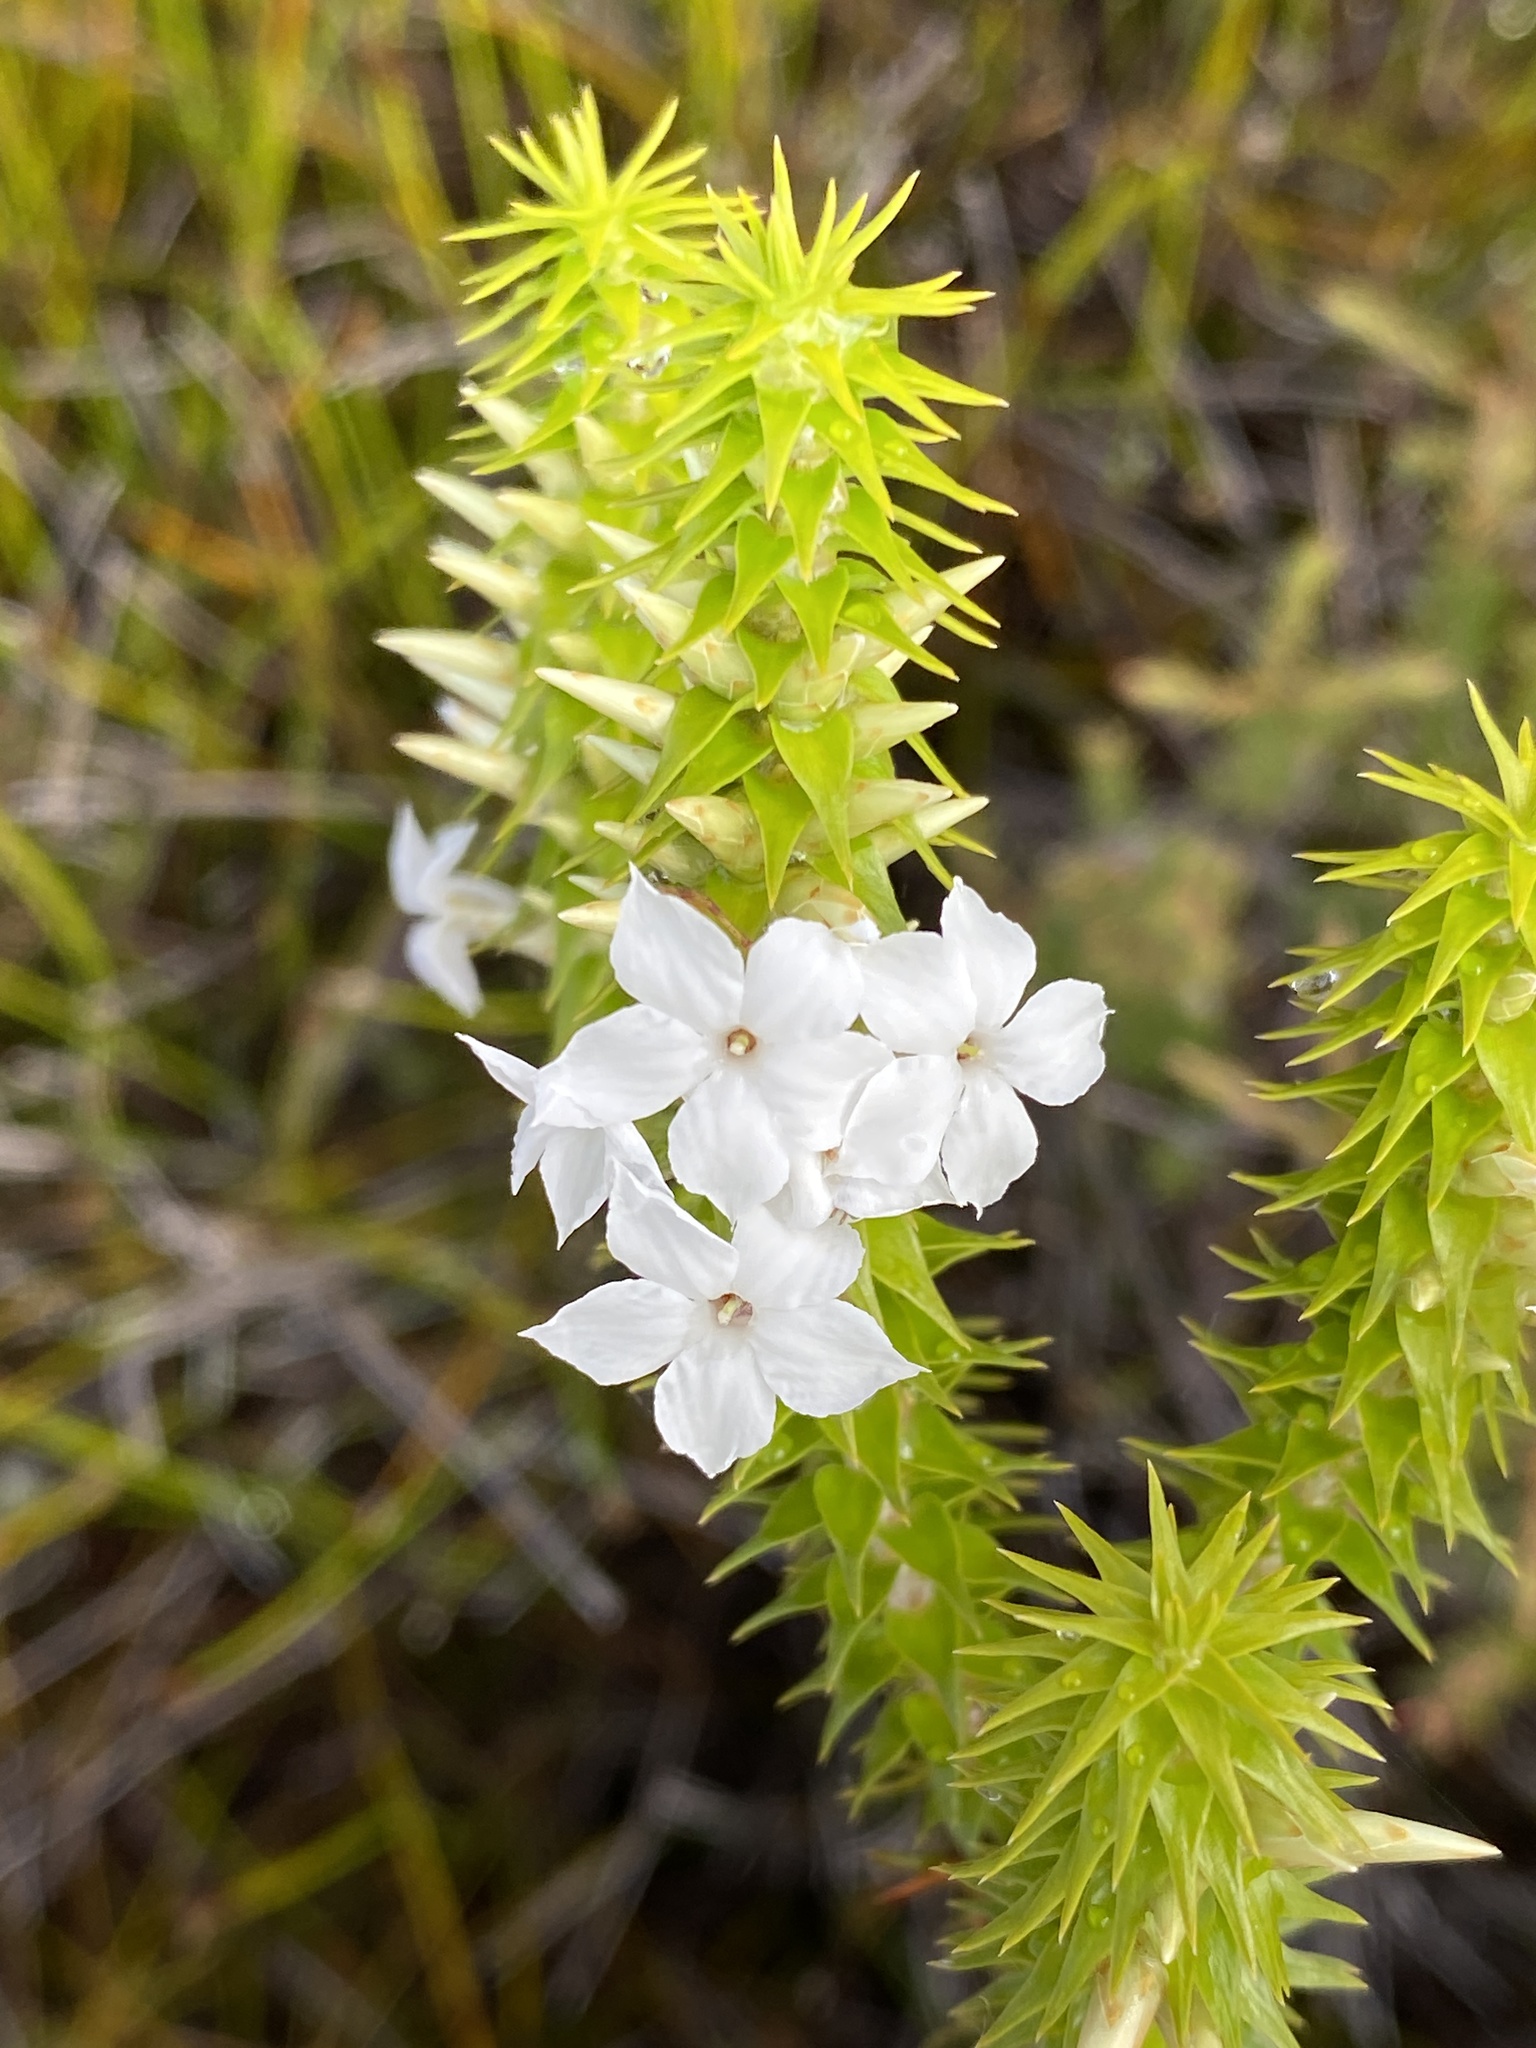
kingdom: Plantae
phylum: Tracheophyta
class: Magnoliopsida
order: Ericales
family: Ericaceae
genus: Woollsia
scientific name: Woollsia pungens
